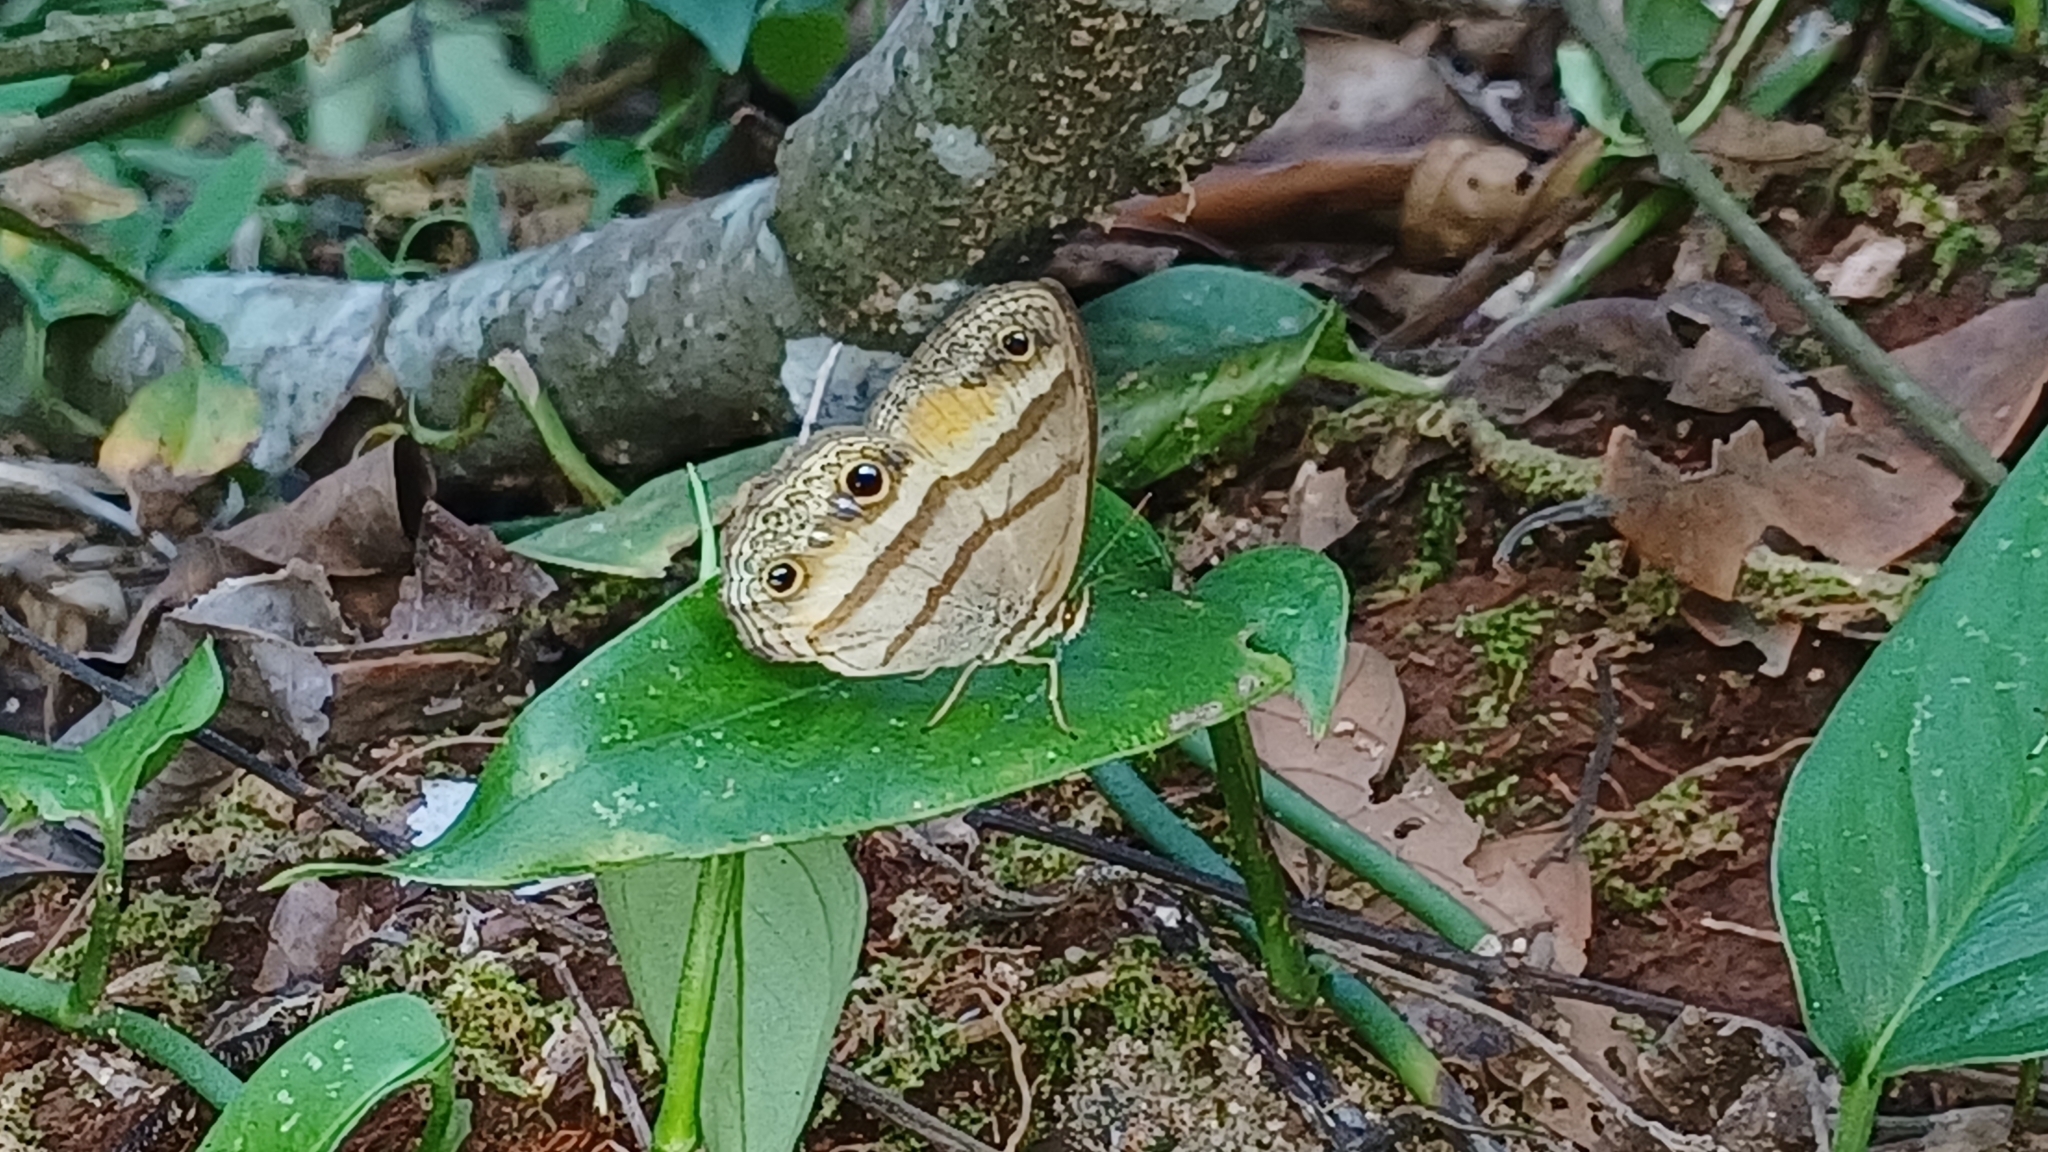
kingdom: Animalia
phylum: Arthropoda
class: Insecta
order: Lepidoptera
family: Nymphalidae
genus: Argyreuptychia
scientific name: Argyreuptychia penelope
